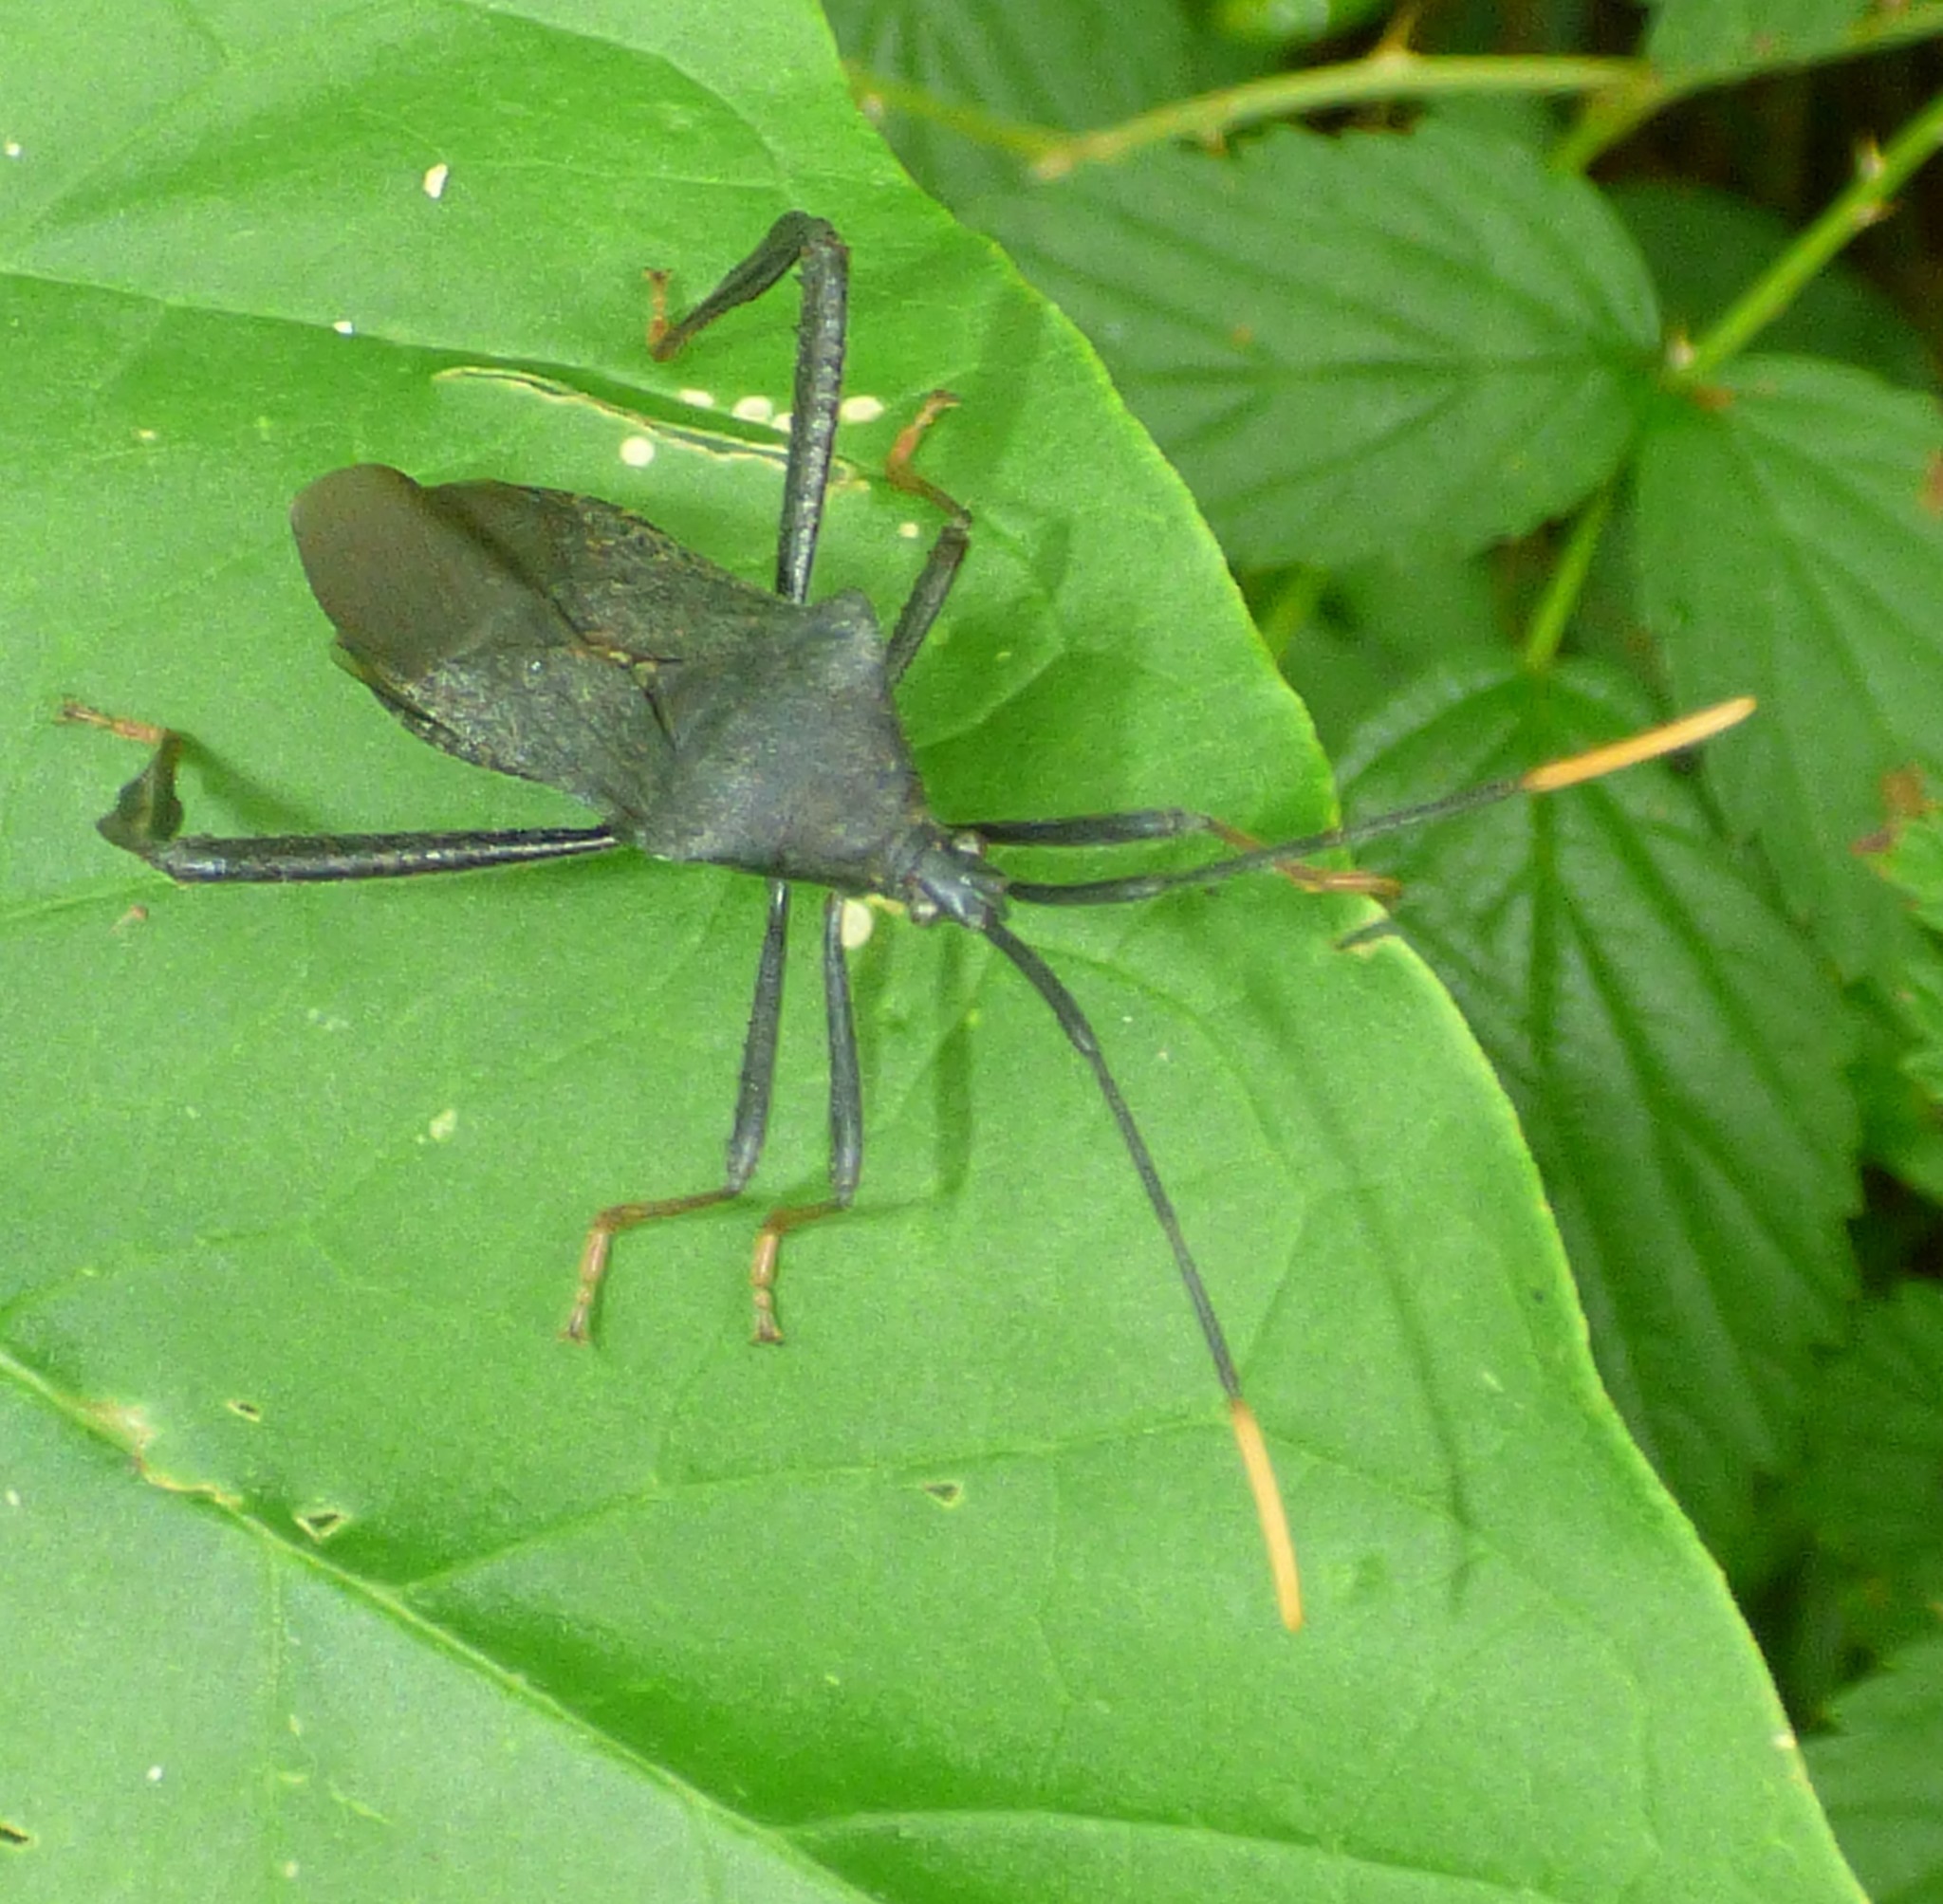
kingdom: Animalia
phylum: Arthropoda
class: Insecta
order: Hemiptera
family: Coreidae
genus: Acanthocephala
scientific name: Acanthocephala terminalis
